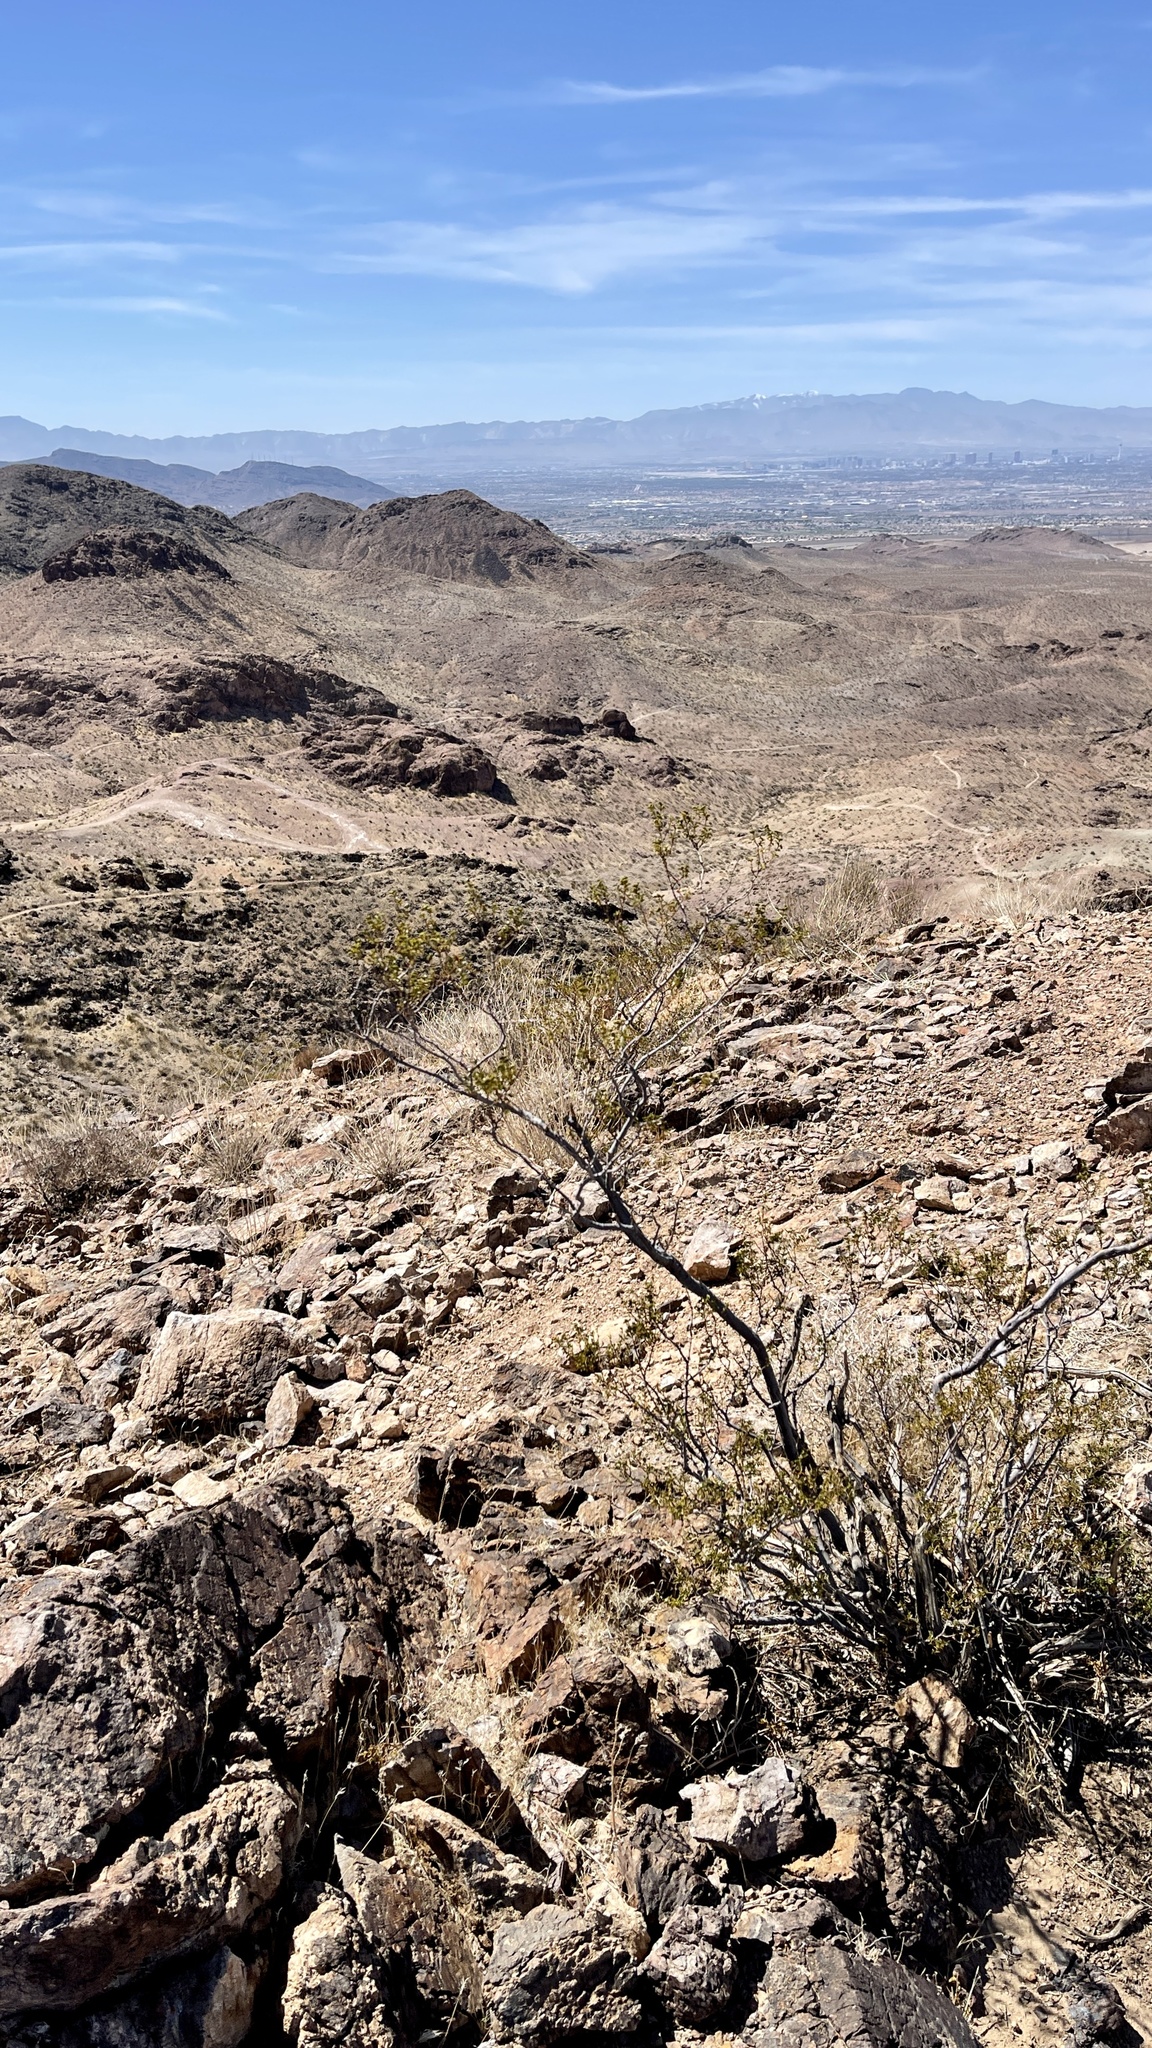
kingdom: Plantae
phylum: Tracheophyta
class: Magnoliopsida
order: Zygophyllales
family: Zygophyllaceae
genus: Larrea
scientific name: Larrea tridentata
